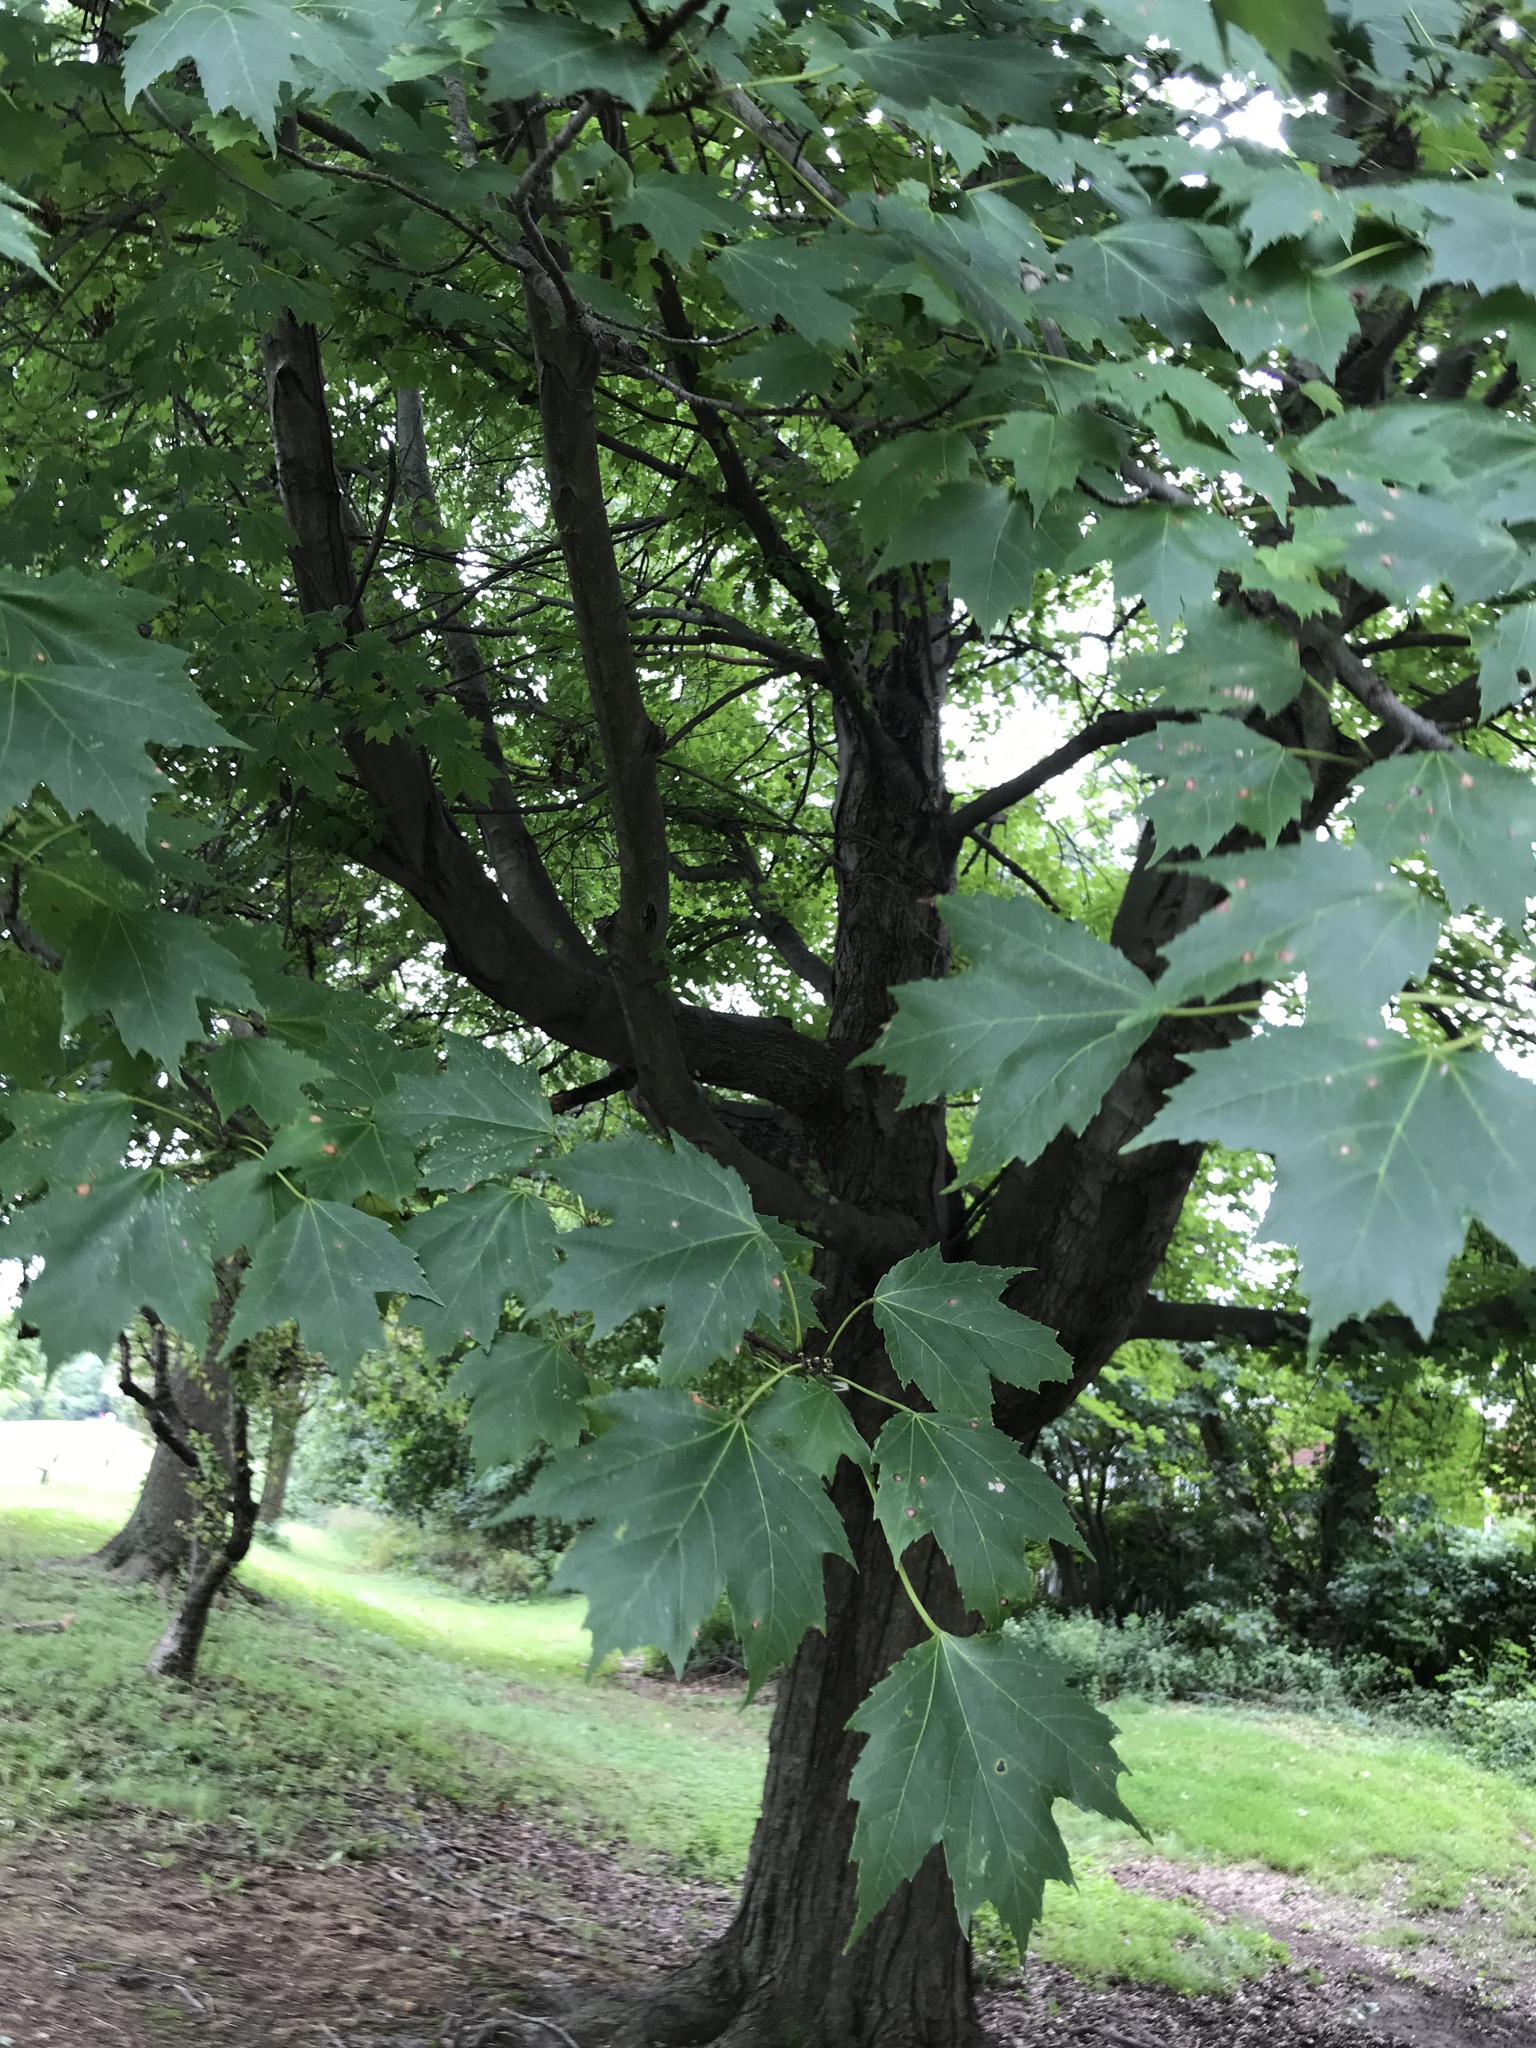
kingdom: Plantae
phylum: Tracheophyta
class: Magnoliopsida
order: Sapindales
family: Sapindaceae
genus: Acer
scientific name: Acer rubrum
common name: Red maple
